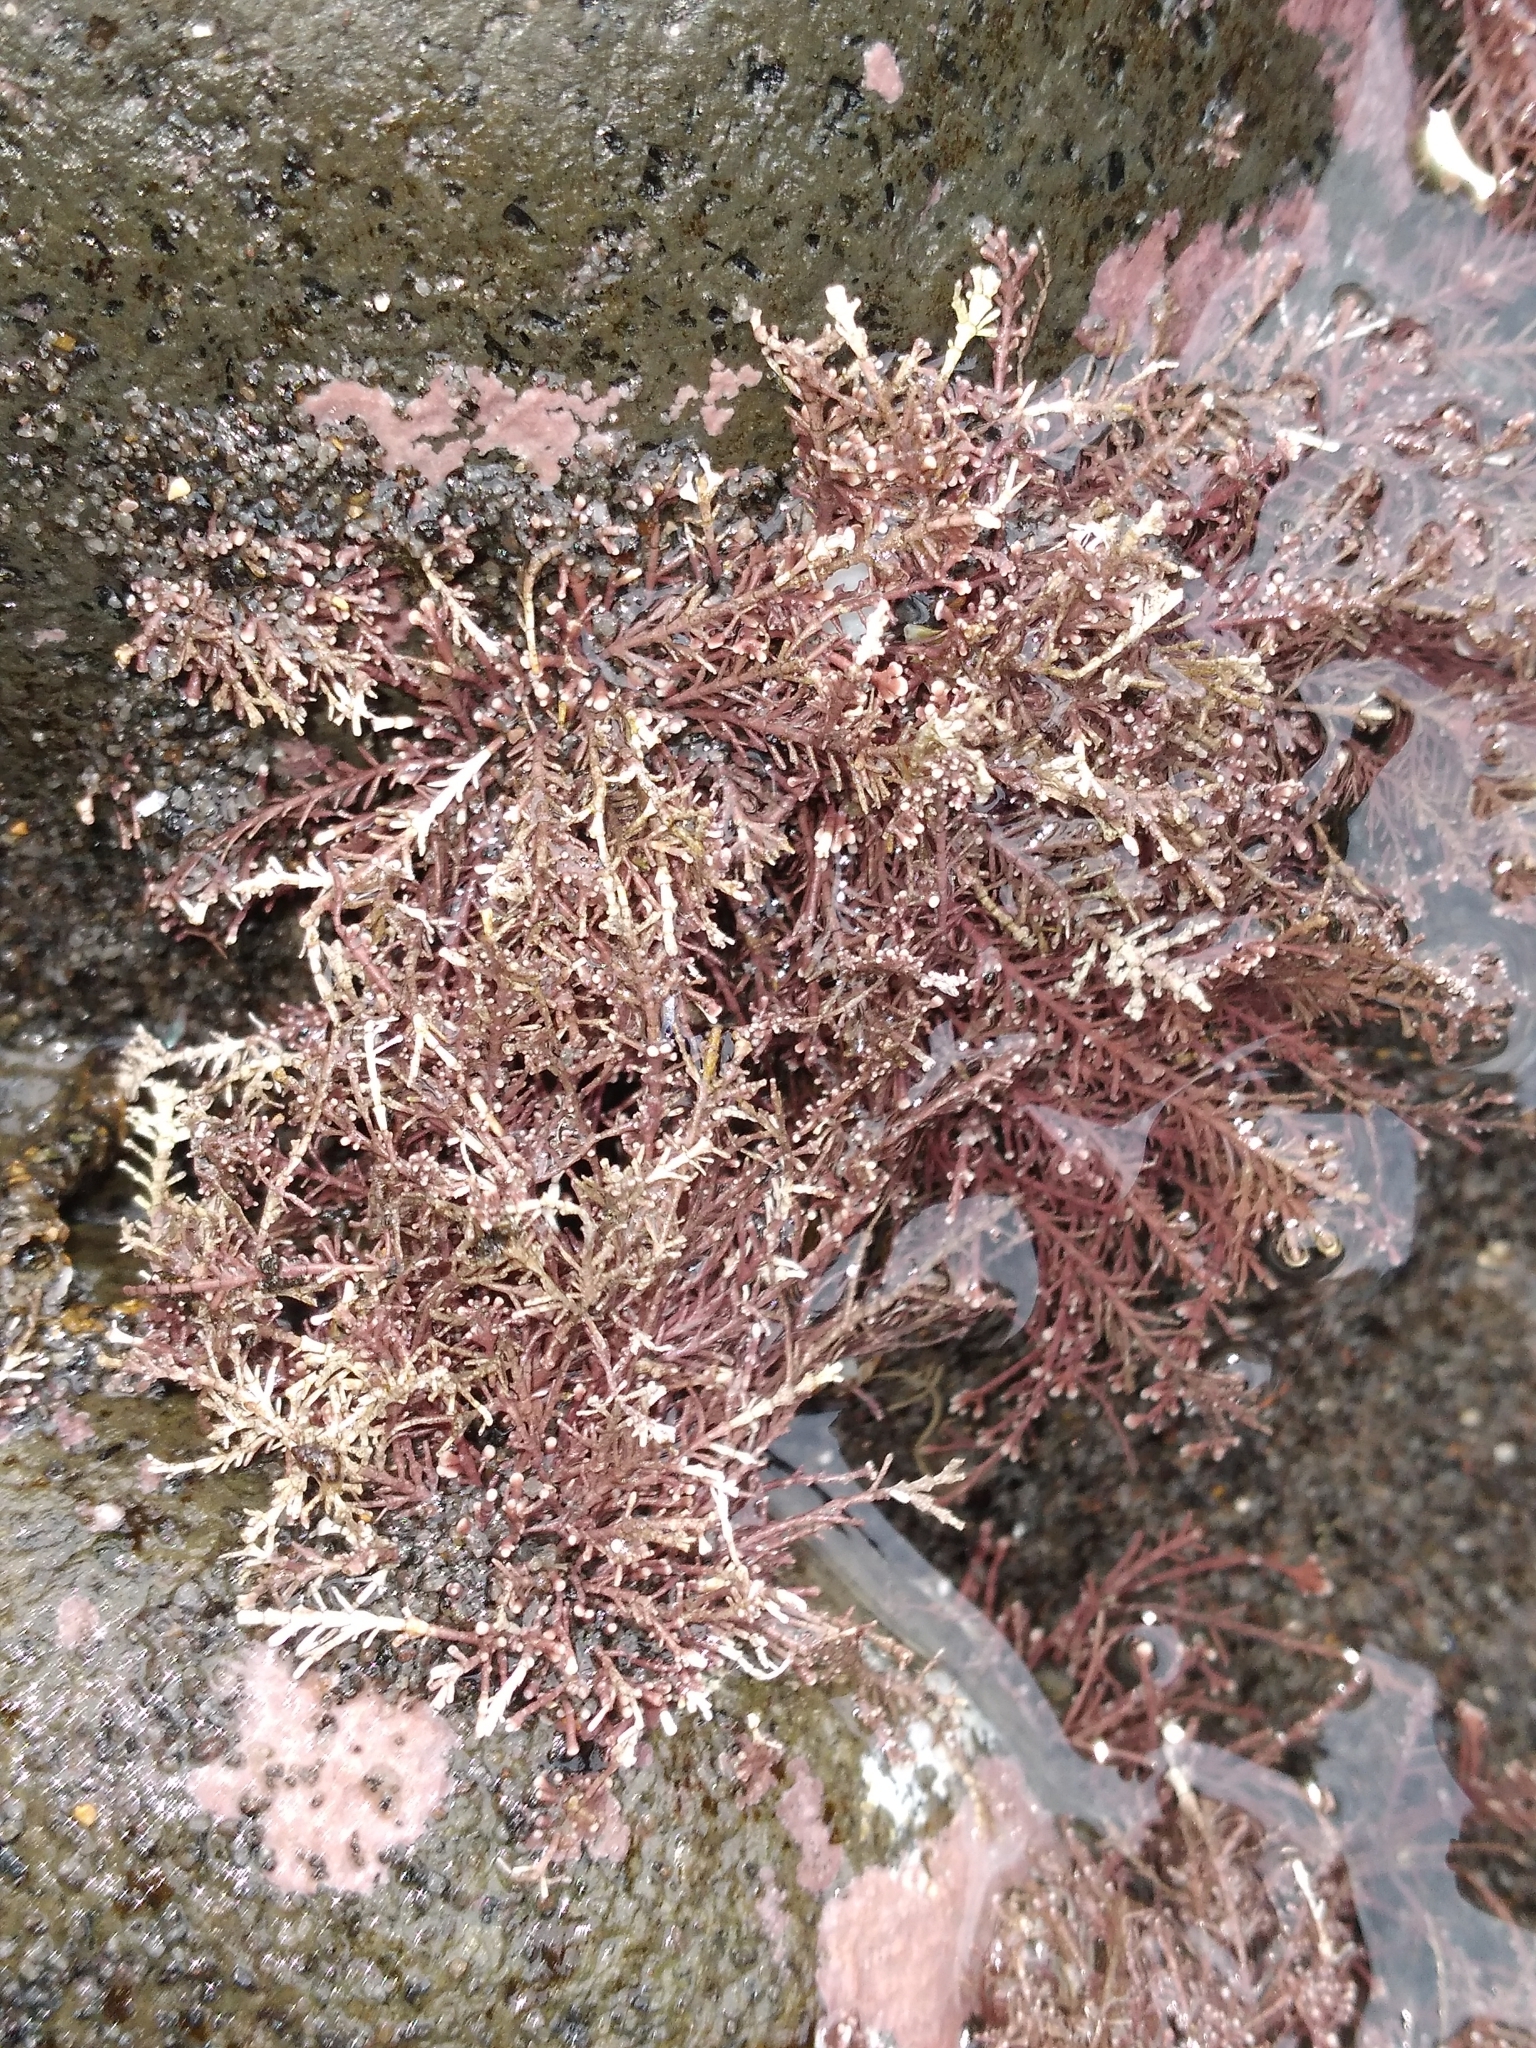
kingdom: Plantae
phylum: Rhodophyta
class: Florideophyceae
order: Corallinales
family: Corallinaceae
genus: Corallina
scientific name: Corallina officinalis
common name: Coral weed
